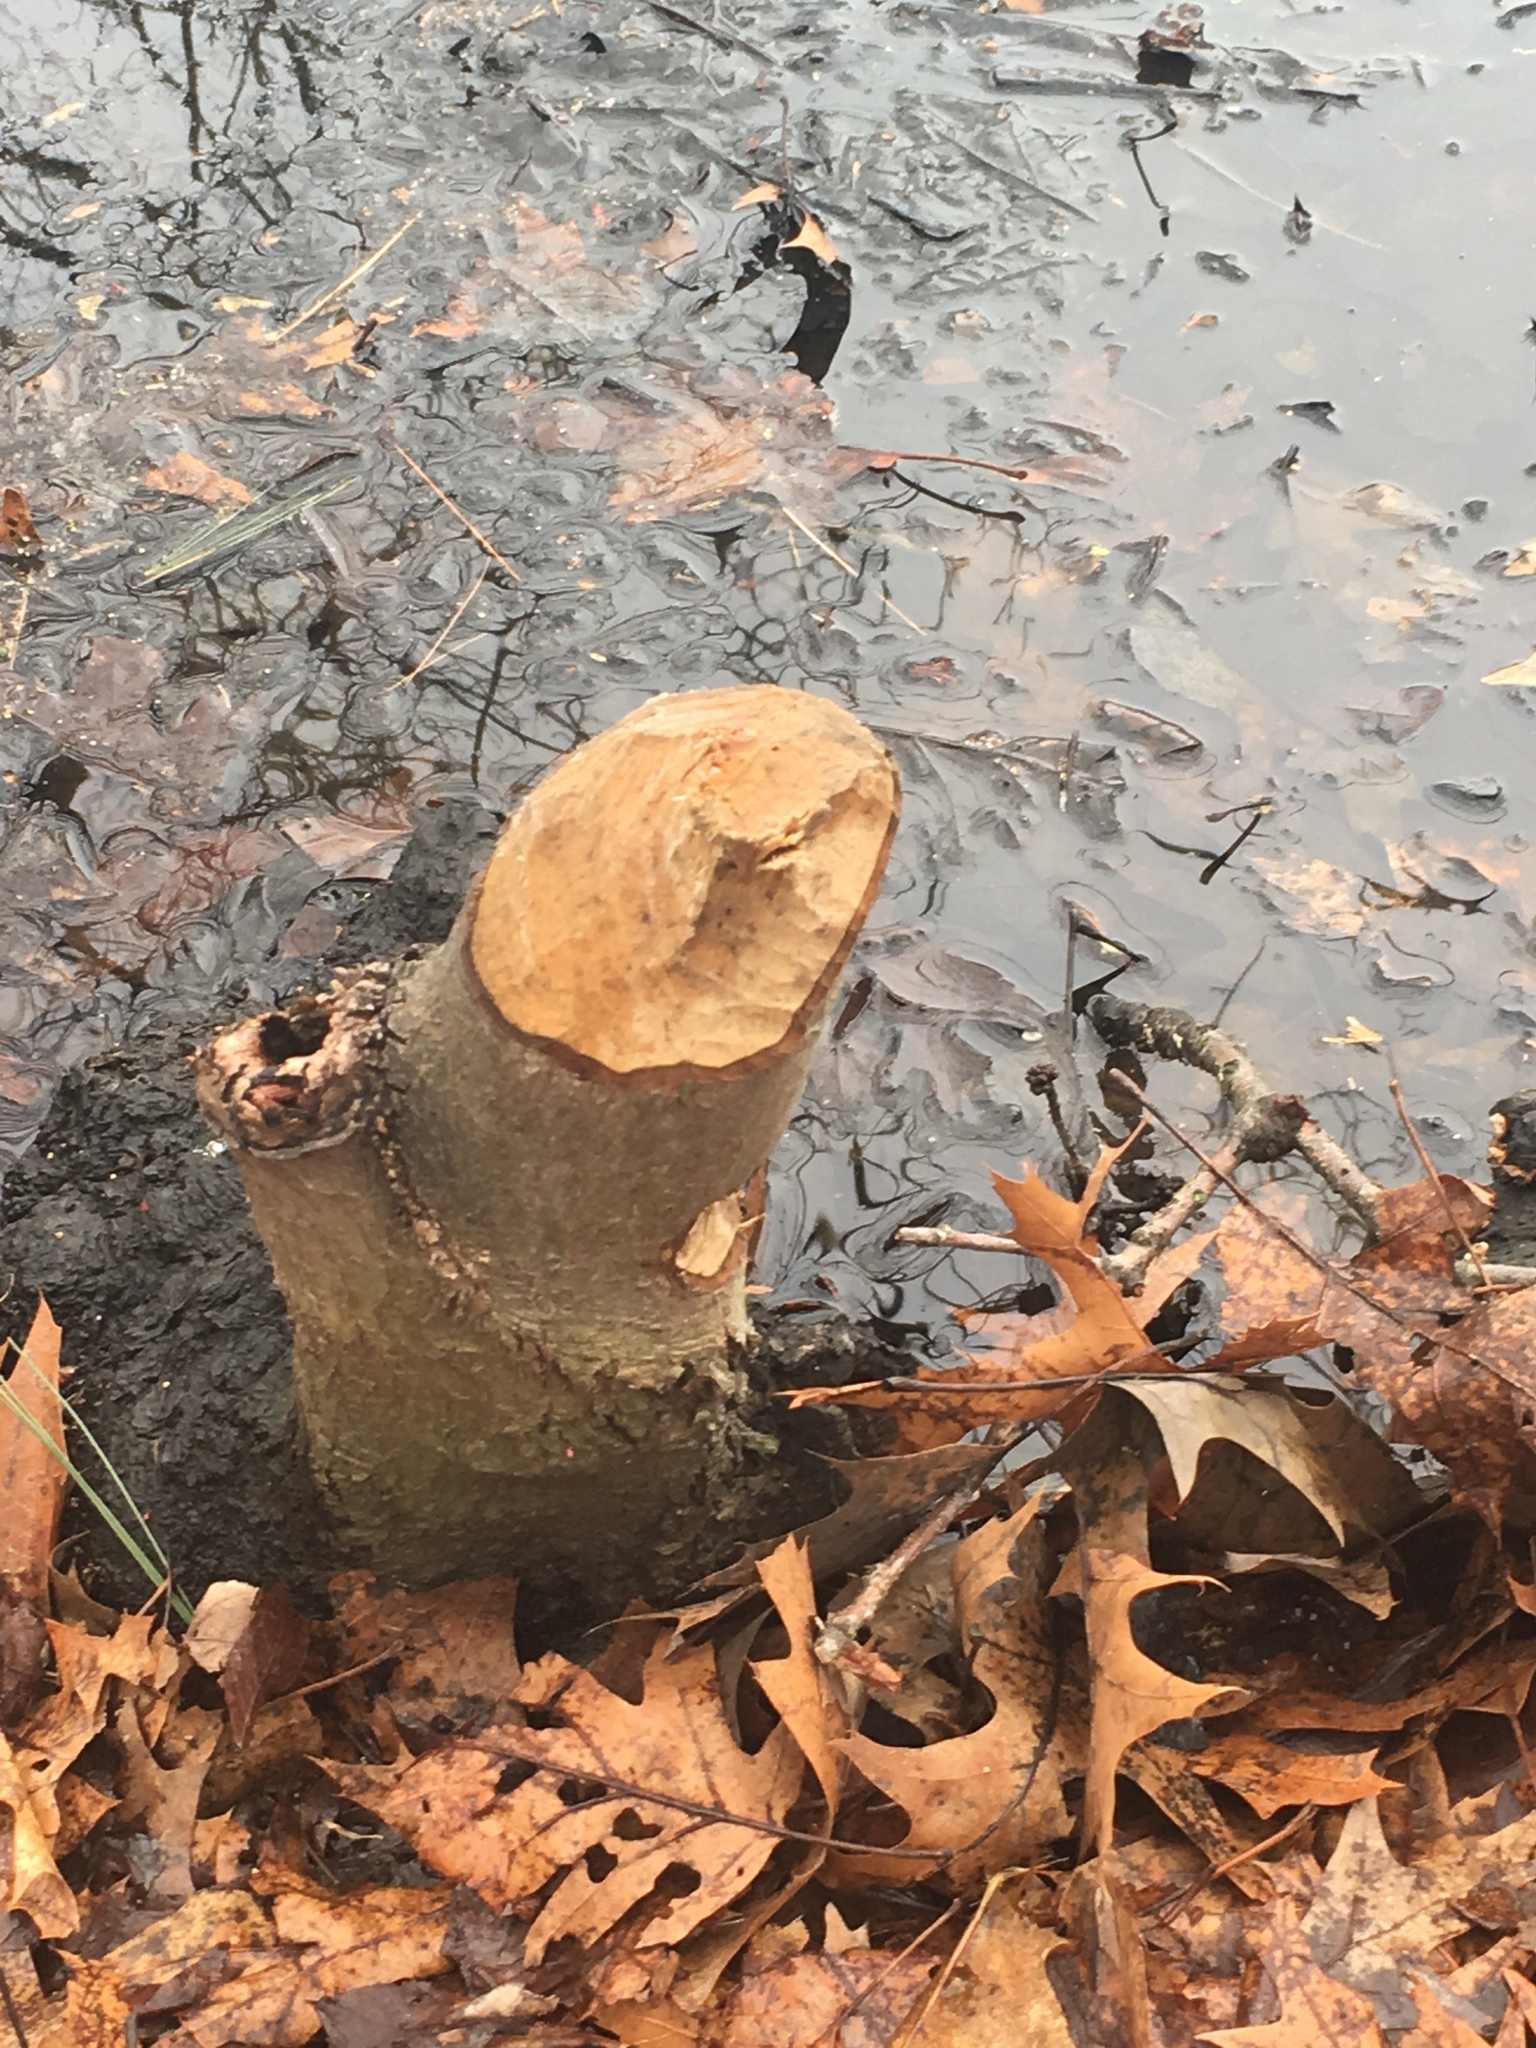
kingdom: Animalia
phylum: Chordata
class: Mammalia
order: Rodentia
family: Castoridae
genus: Castor
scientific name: Castor canadensis
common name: American beaver
